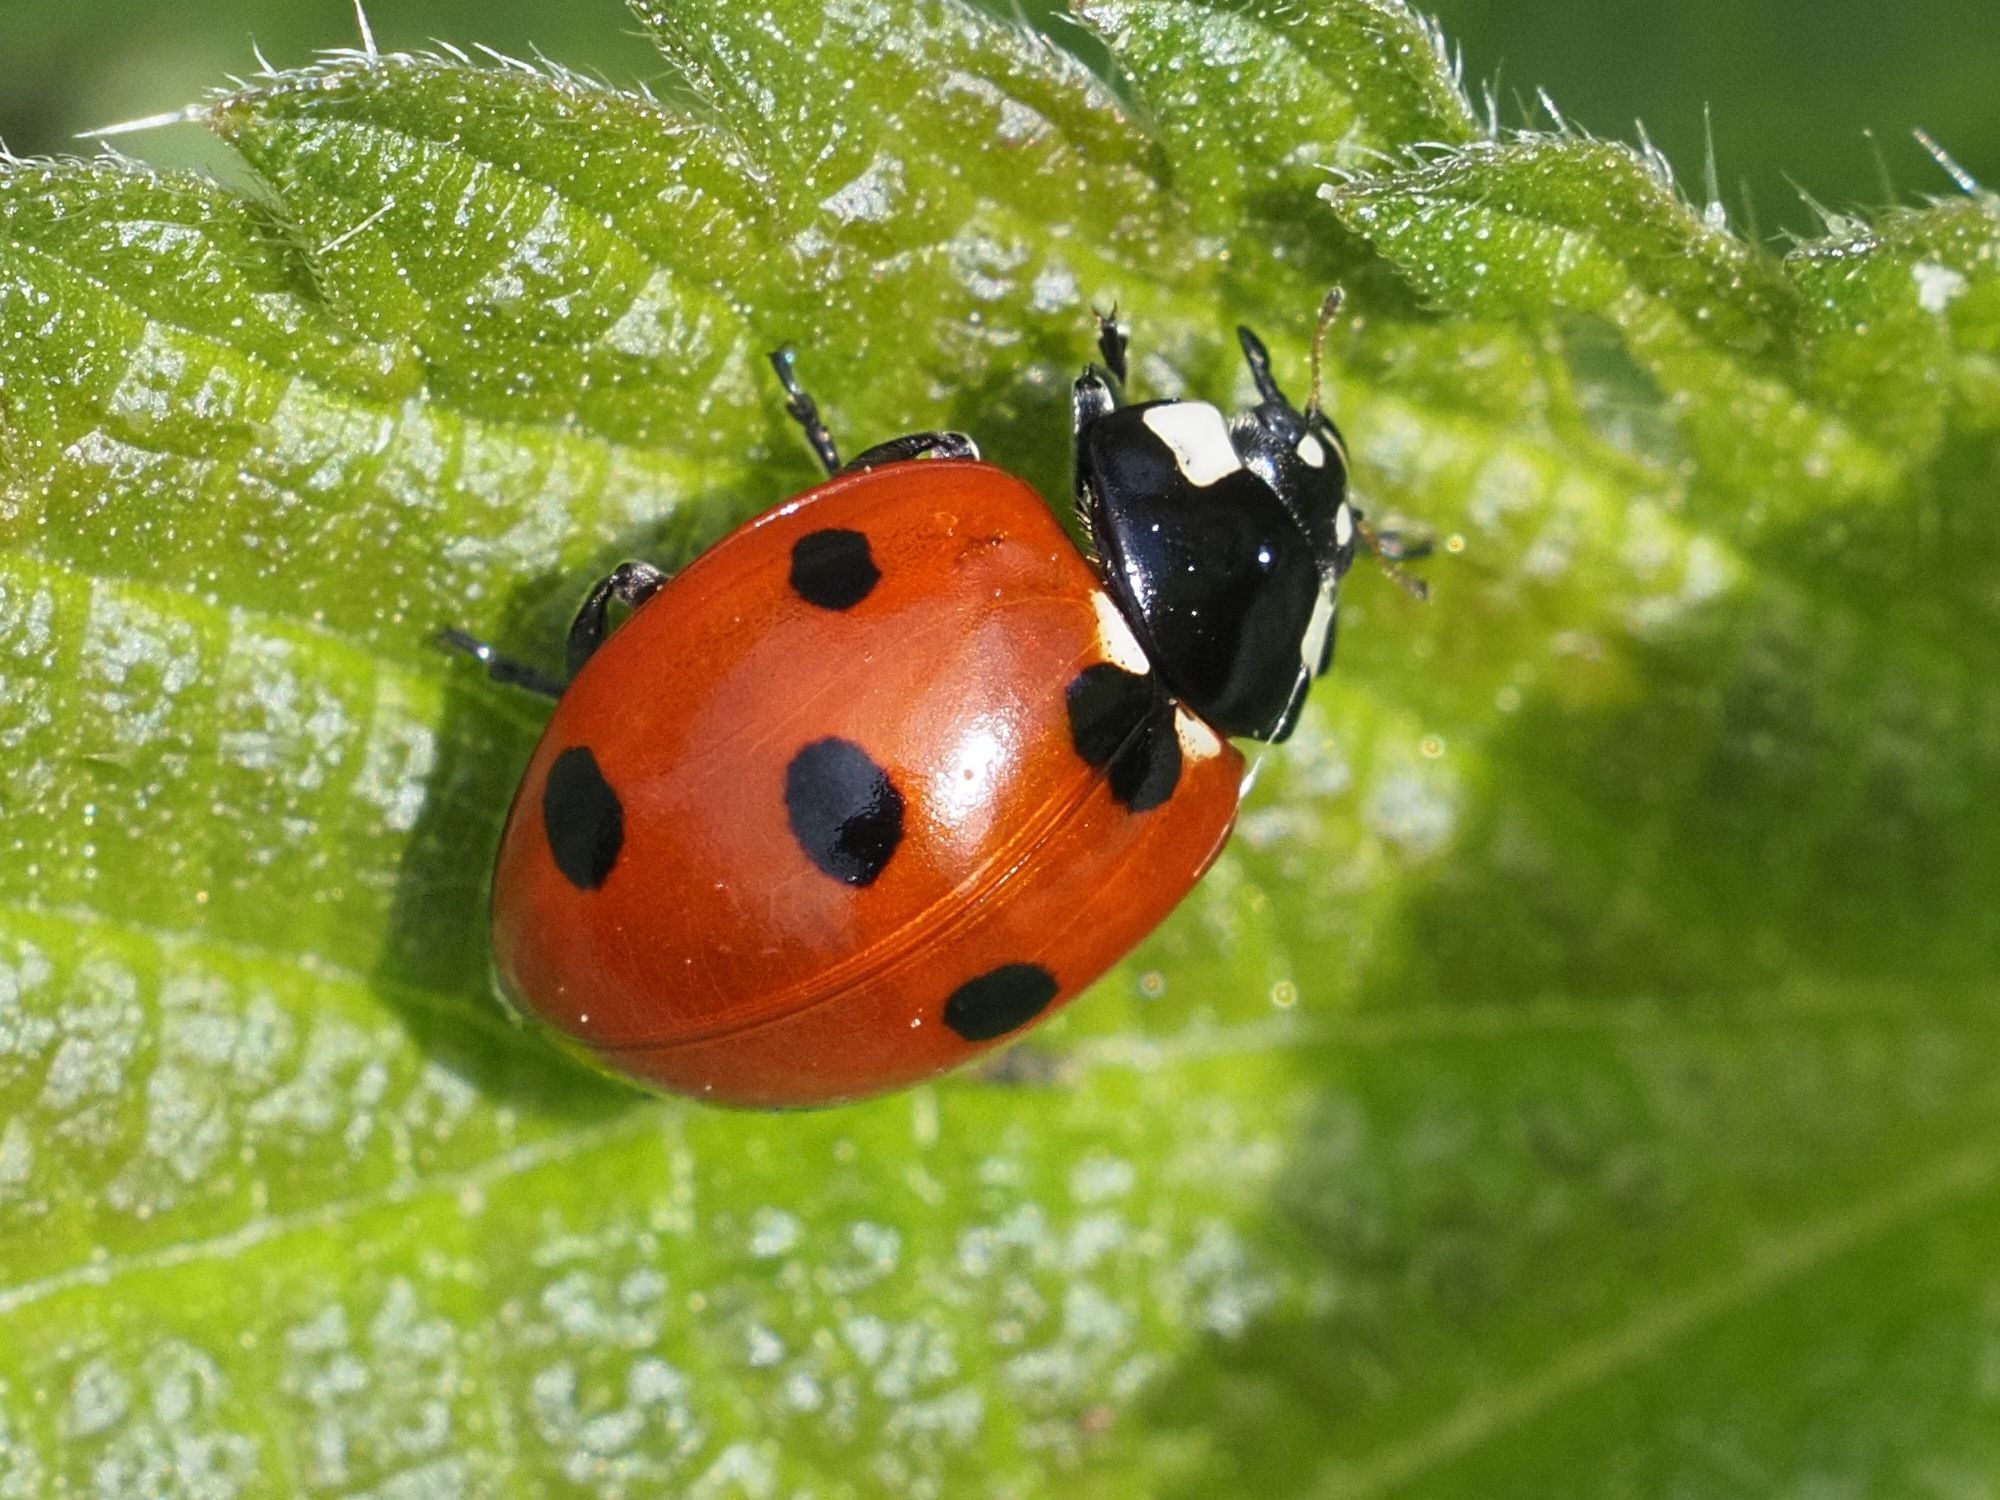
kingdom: Animalia
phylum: Arthropoda
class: Insecta
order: Coleoptera
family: Coccinellidae
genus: Coccinella
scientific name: Coccinella septempunctata
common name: Sevenspotted lady beetle
